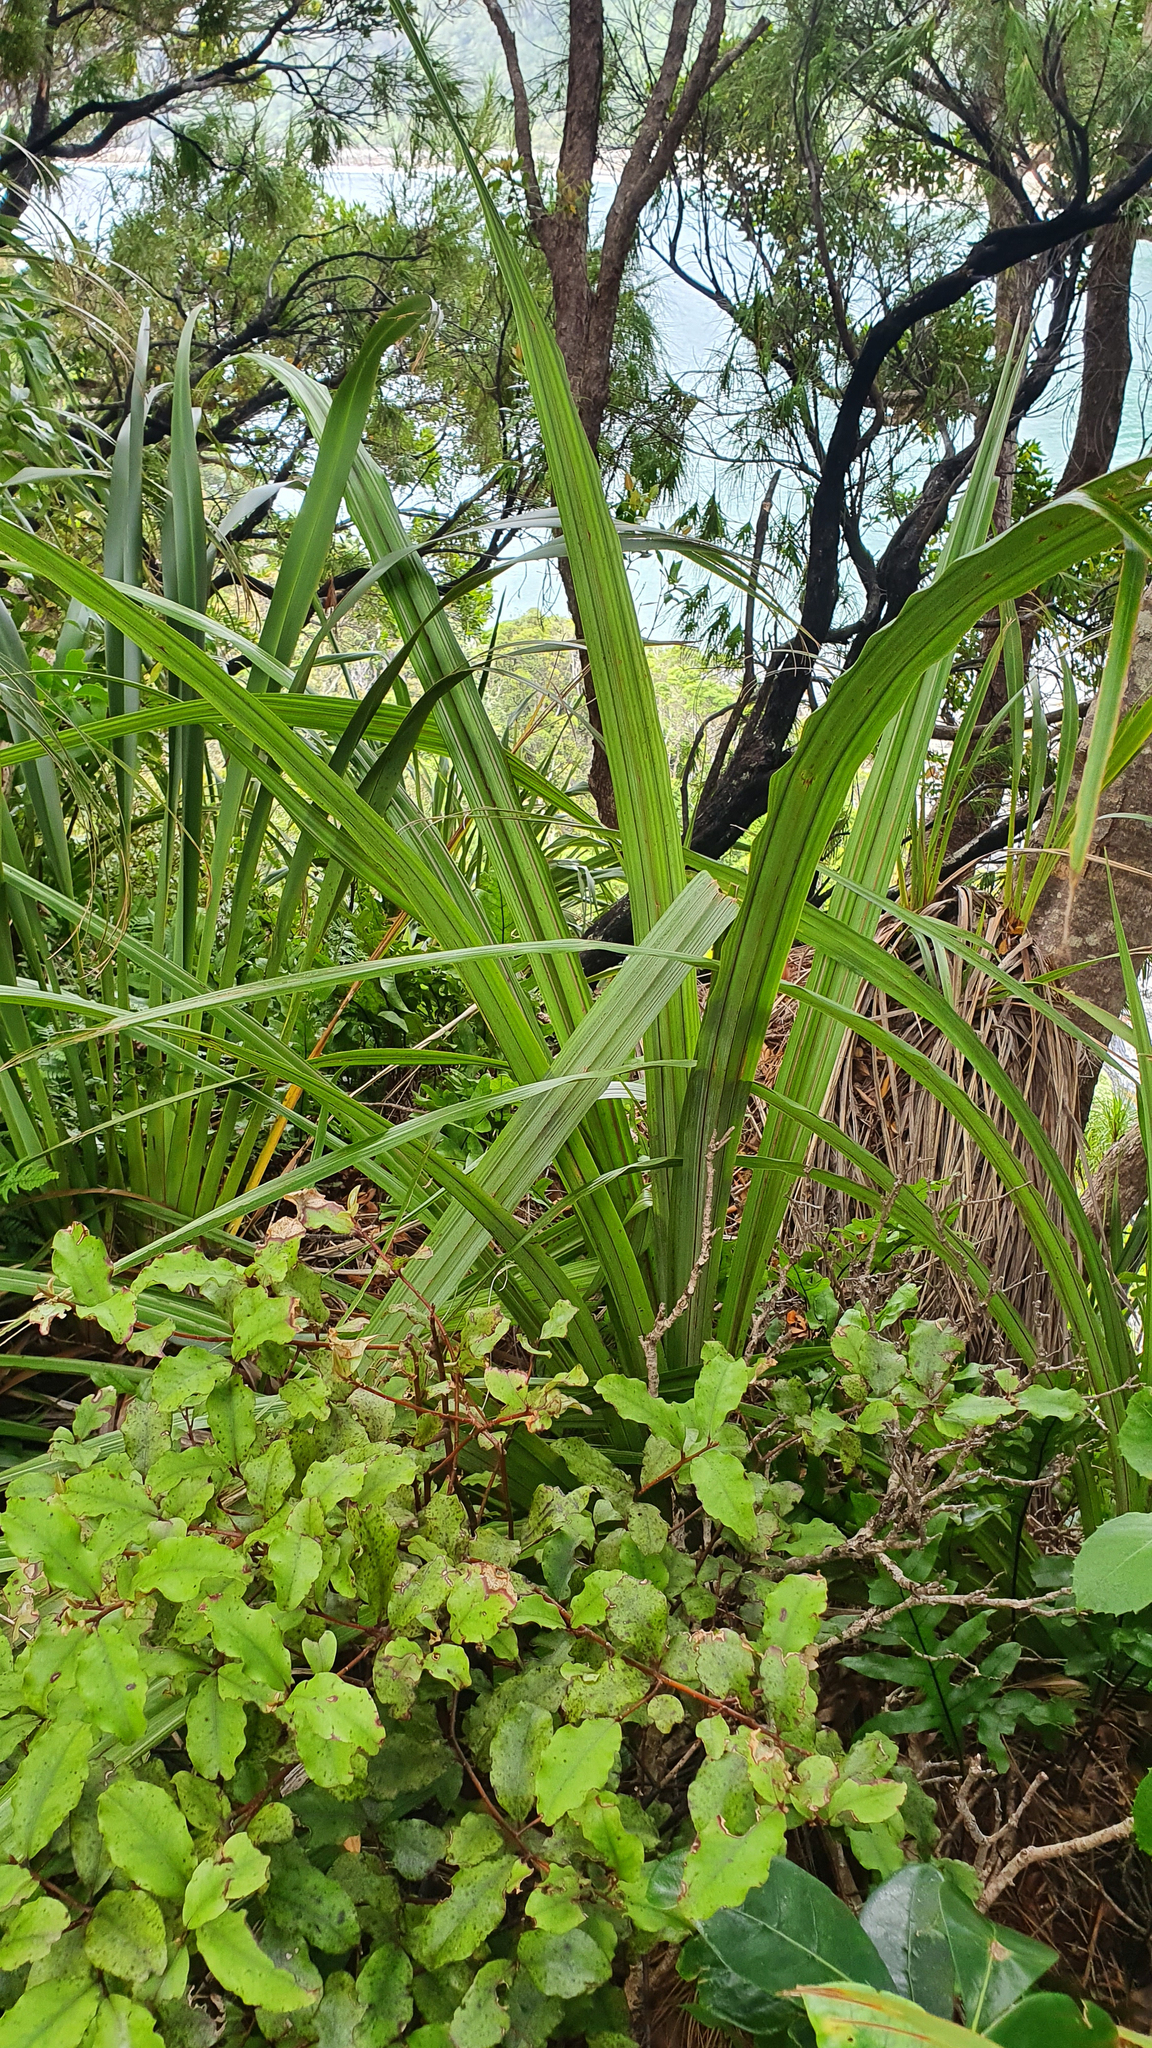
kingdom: Plantae
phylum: Tracheophyta
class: Liliopsida
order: Asparagales
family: Asteliaceae
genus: Astelia
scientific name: Astelia fragrans
